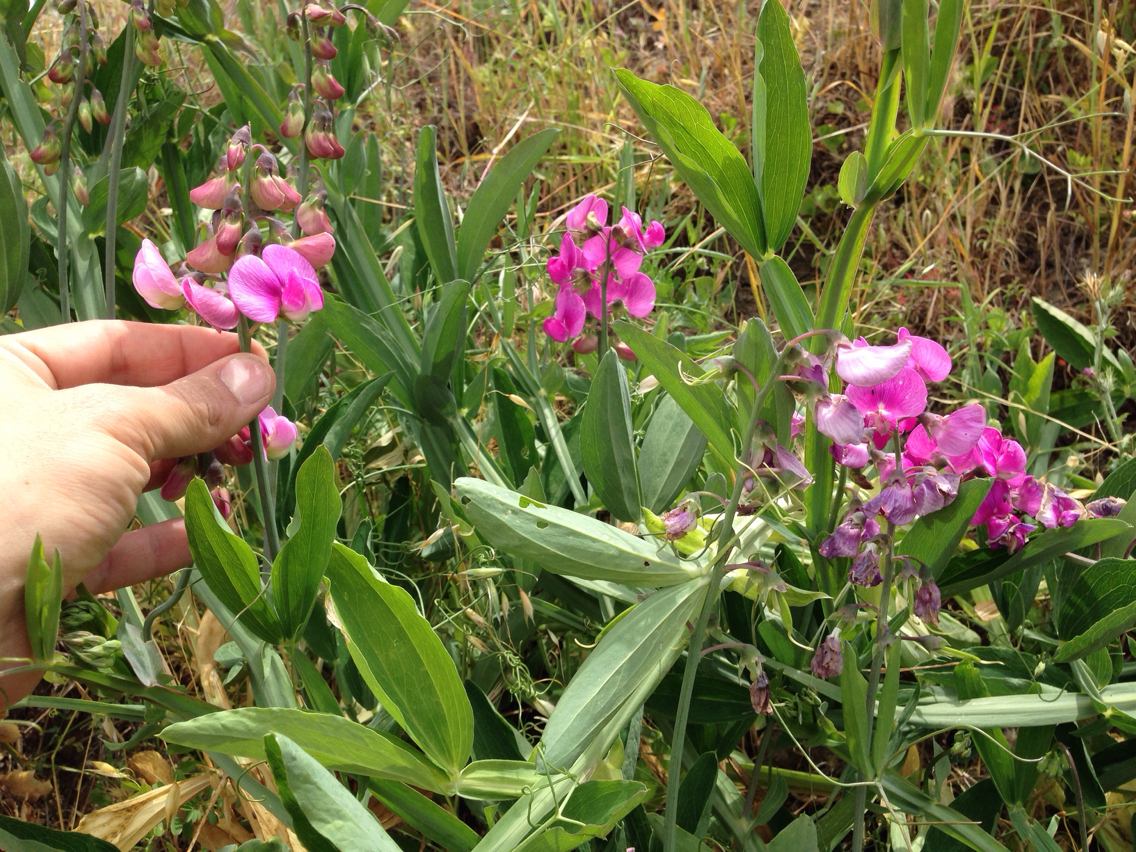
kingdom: Plantae
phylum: Tracheophyta
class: Magnoliopsida
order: Fabales
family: Fabaceae
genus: Lathyrus
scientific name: Lathyrus latifolius
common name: Perennial pea
